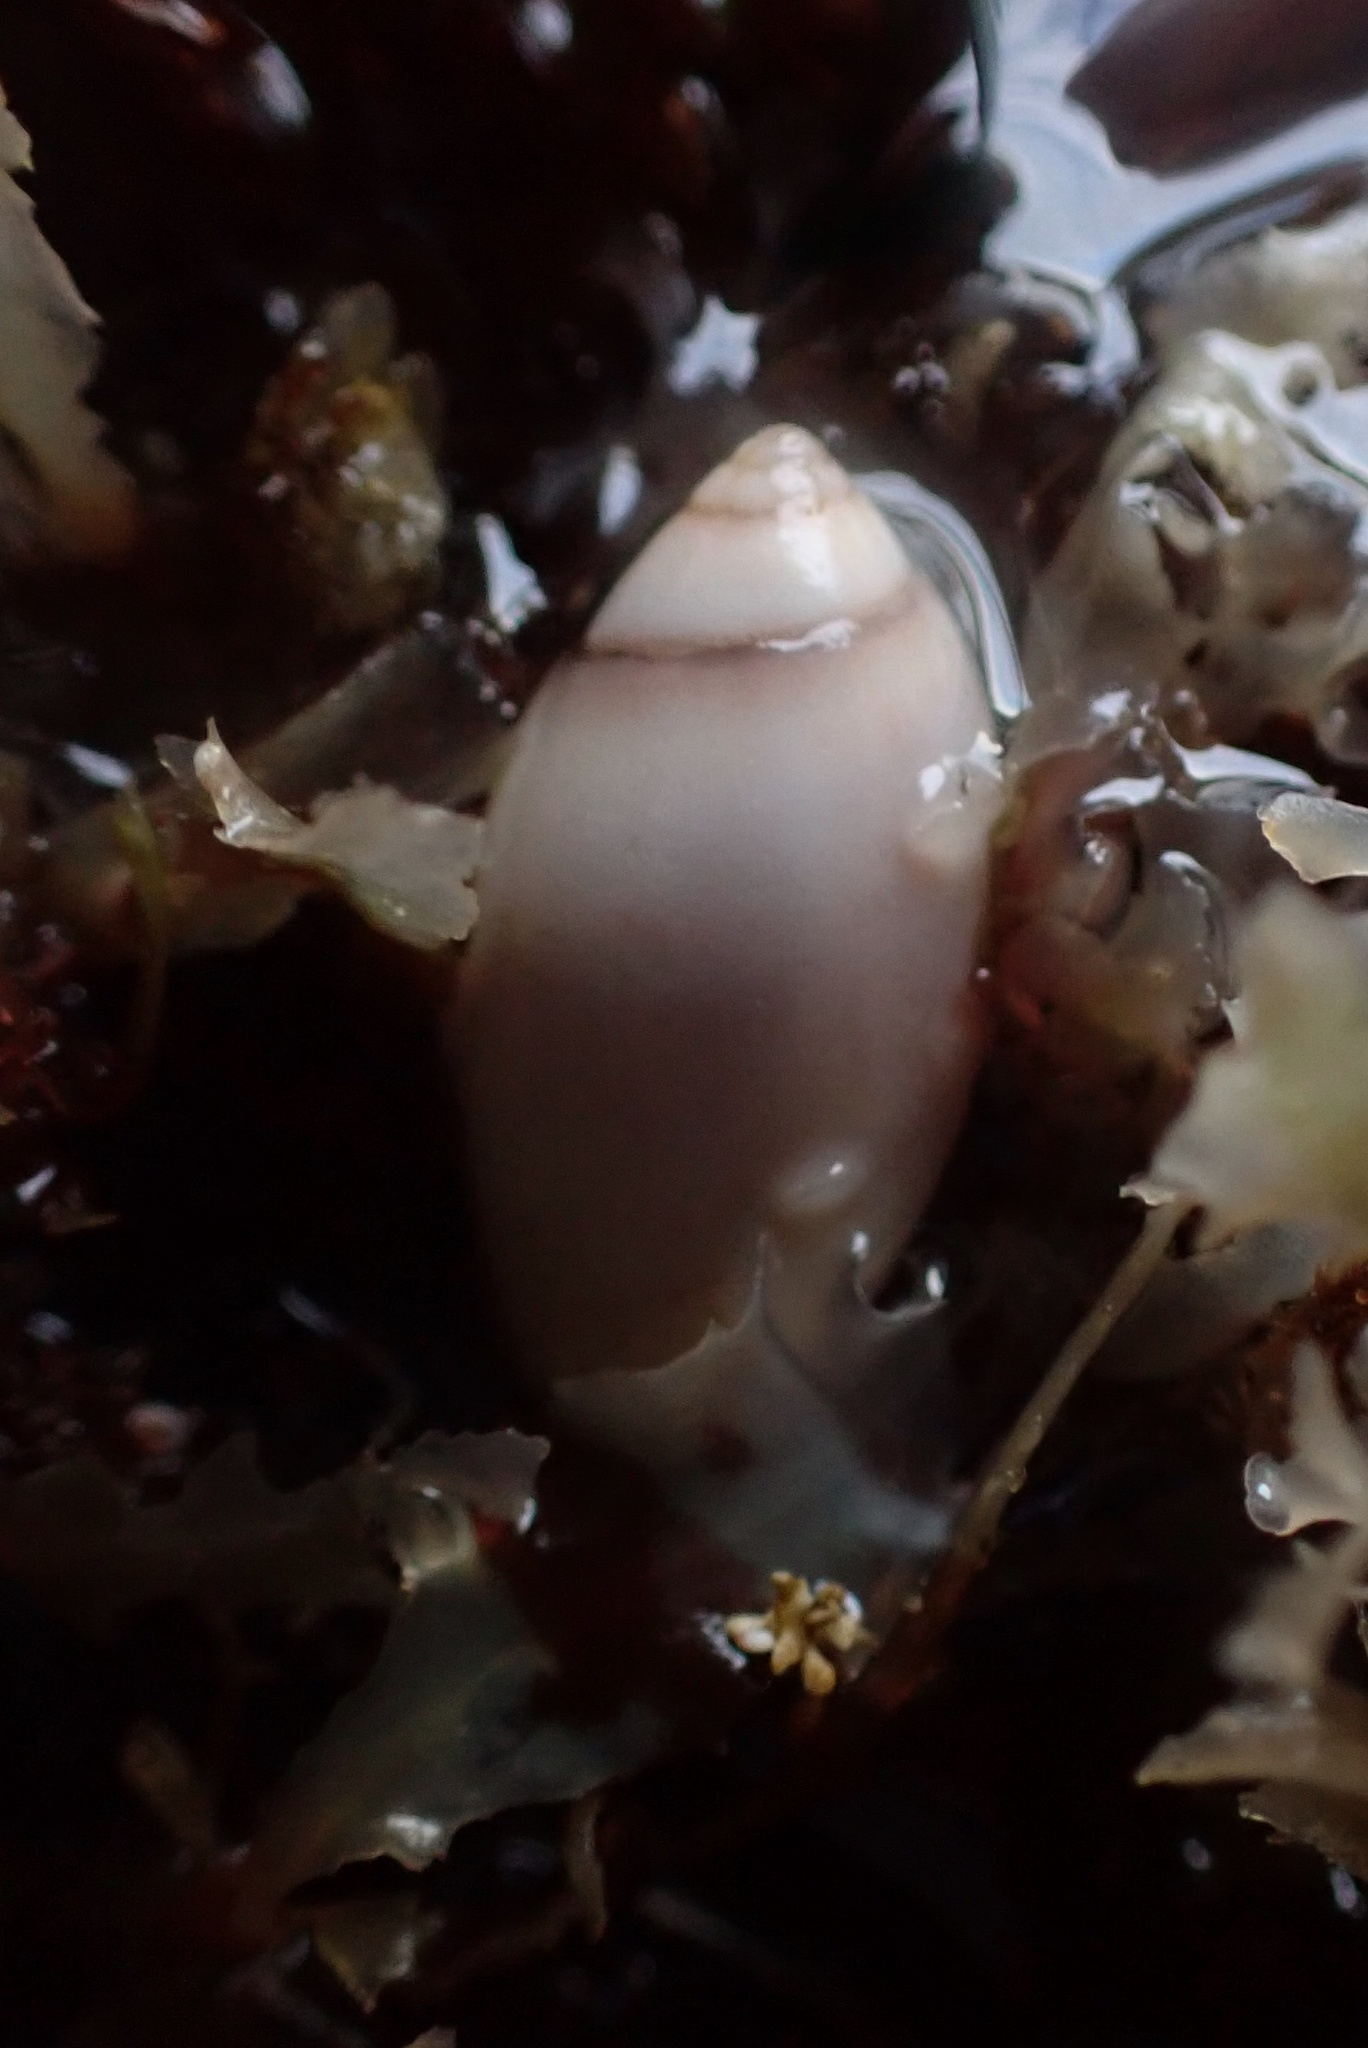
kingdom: Animalia
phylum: Mollusca
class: Gastropoda
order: Neogastropoda
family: Olividae
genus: Callianax
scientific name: Callianax biplicata
